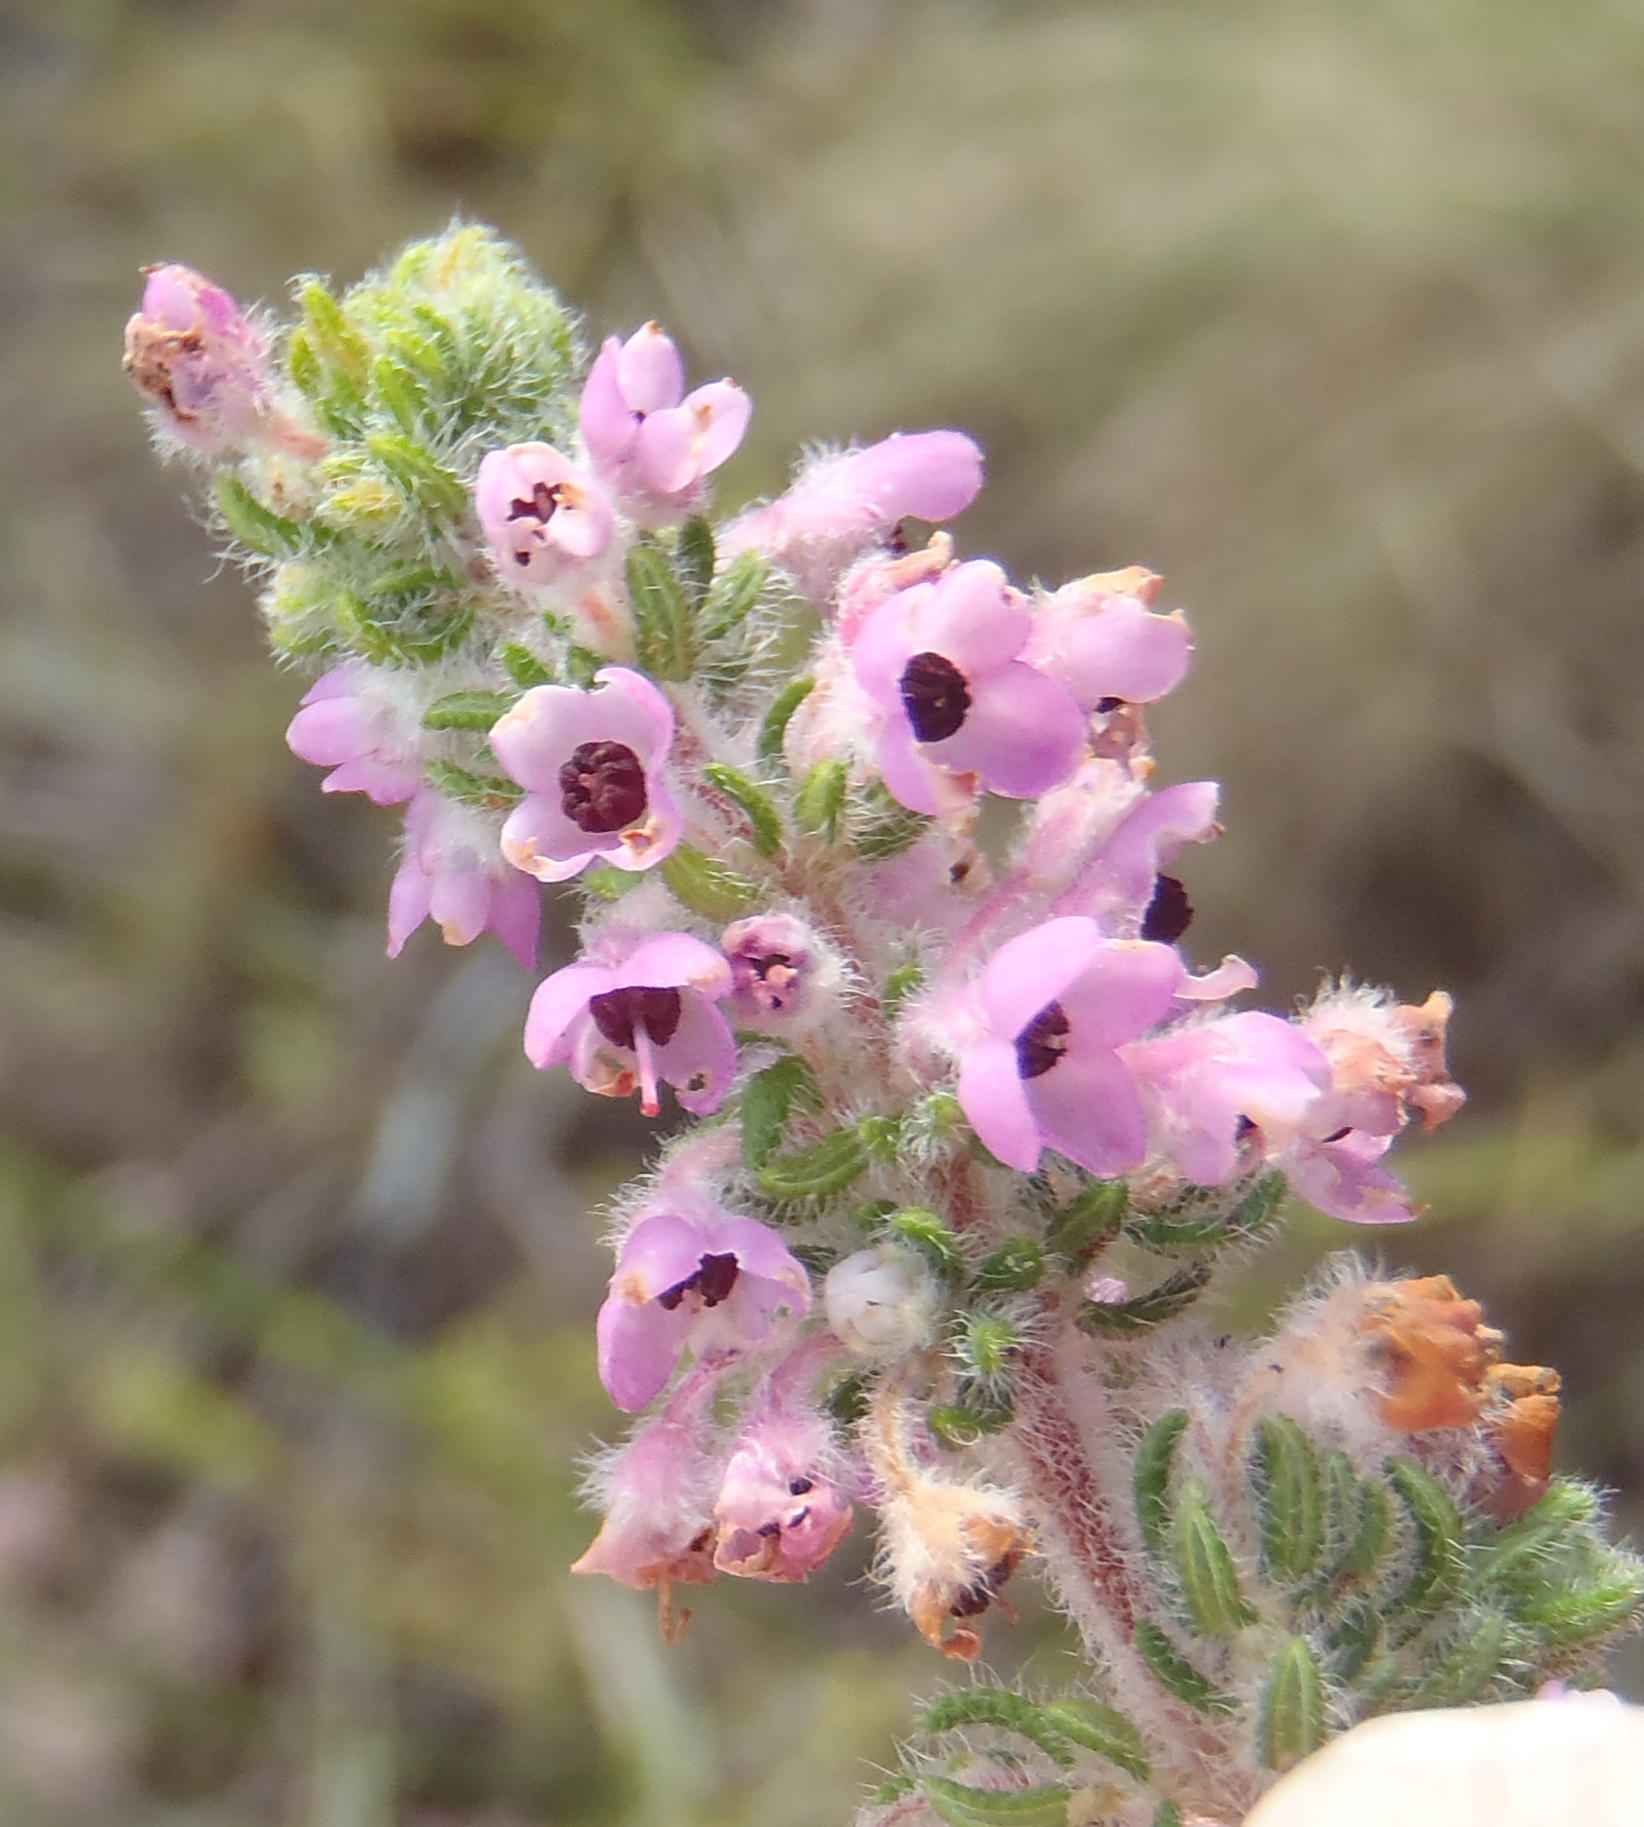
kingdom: Plantae
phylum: Tracheophyta
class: Magnoliopsida
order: Ericales
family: Ericaceae
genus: Erica
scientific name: Erica chamissonis
